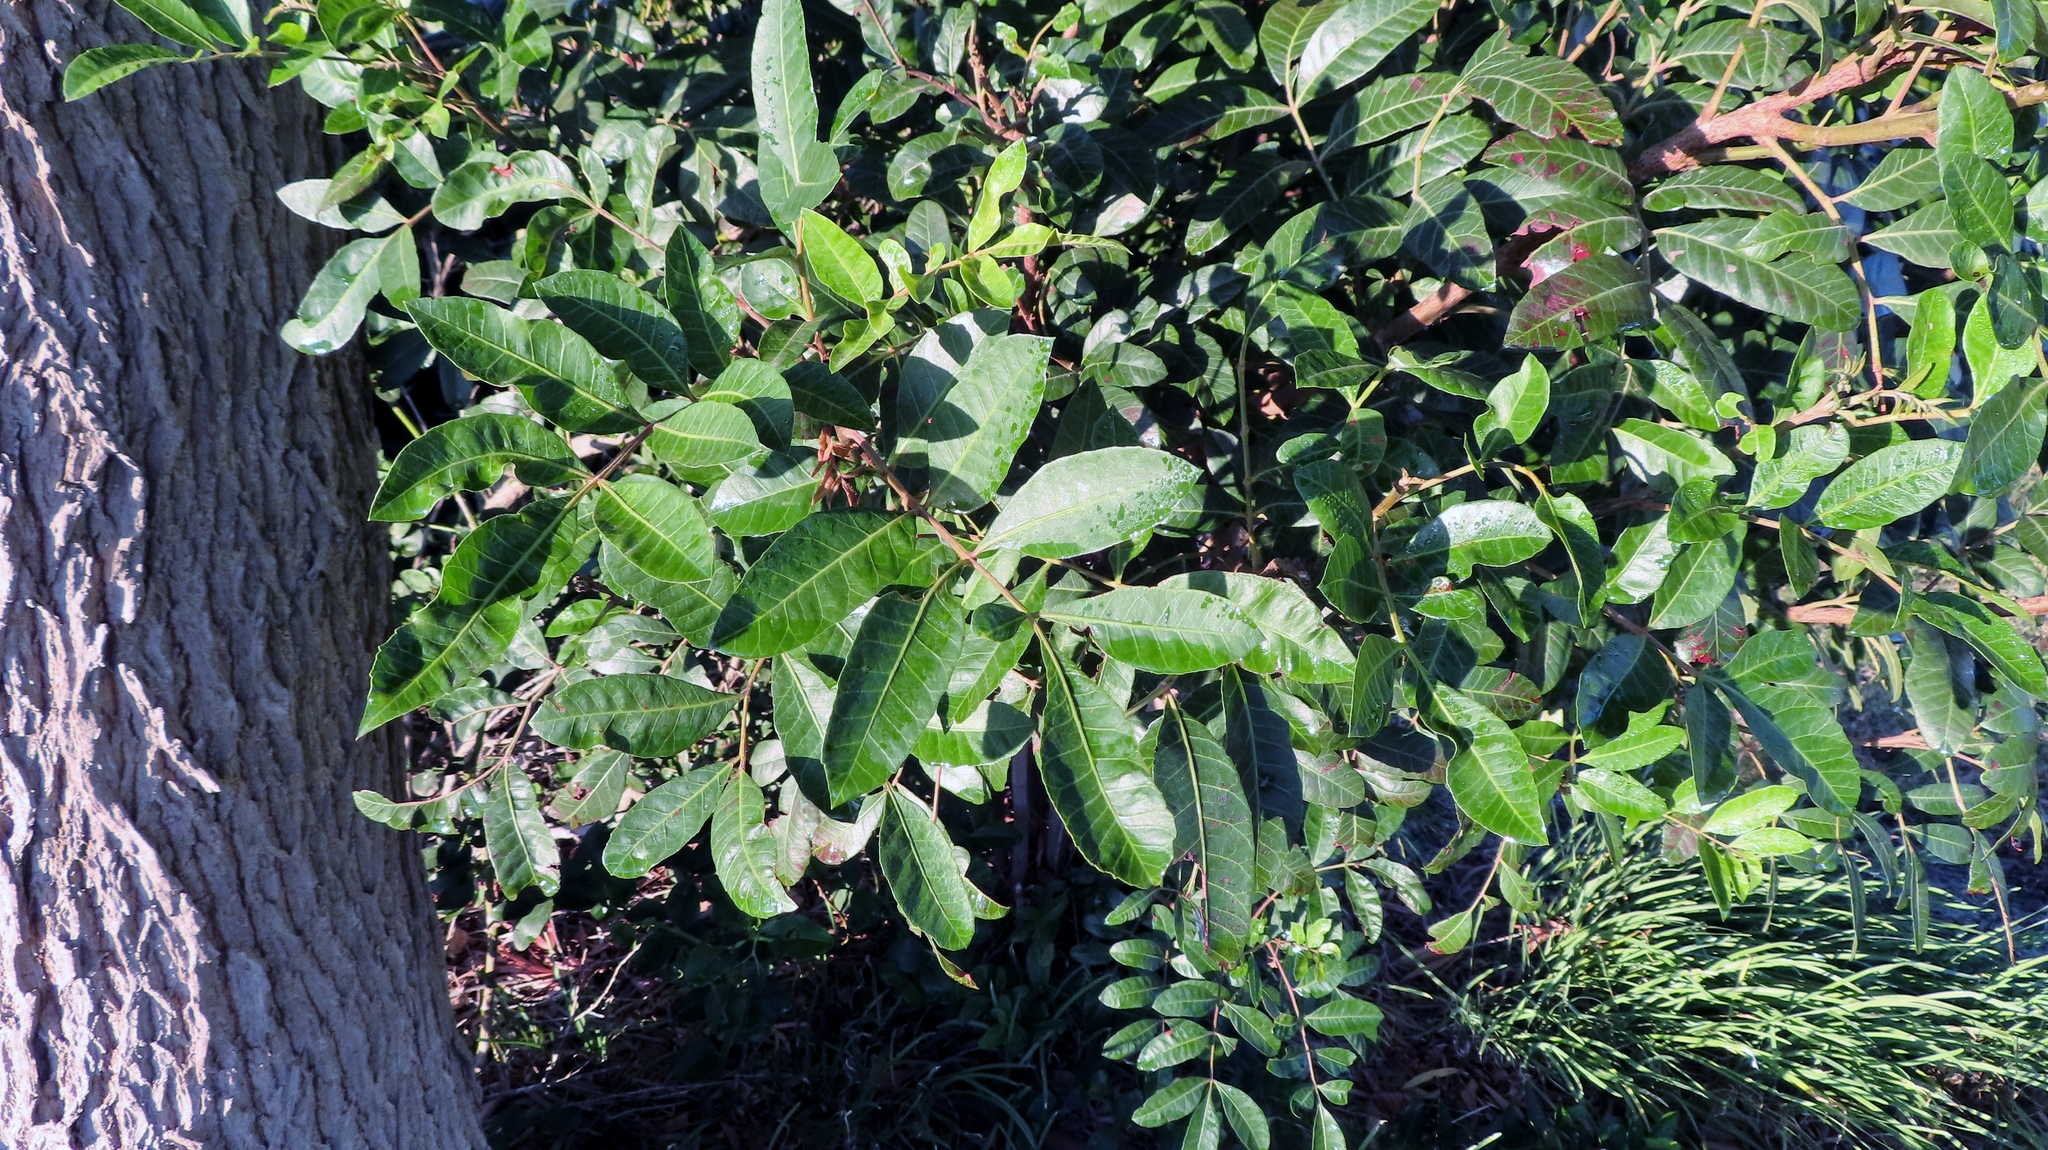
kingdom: Plantae
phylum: Tracheophyta
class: Magnoliopsida
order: Sapindales
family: Anacardiaceae
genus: Schinus
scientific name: Schinus terebinthifolia
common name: Brazilian peppertree
